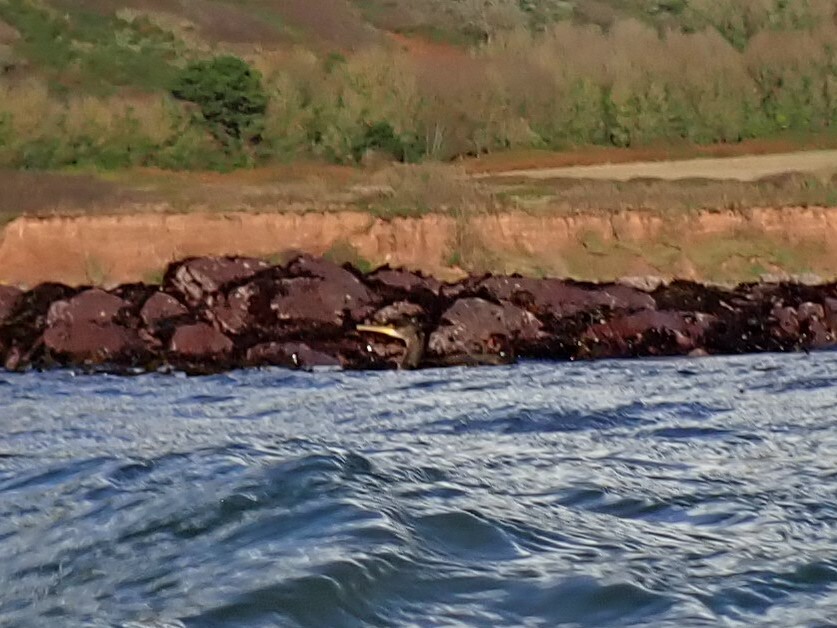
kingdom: Animalia
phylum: Chordata
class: Aves
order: Suliformes
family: Phalacrocoracidae
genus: Phalacrocorax
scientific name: Phalacrocorax carbo
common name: Great cormorant
